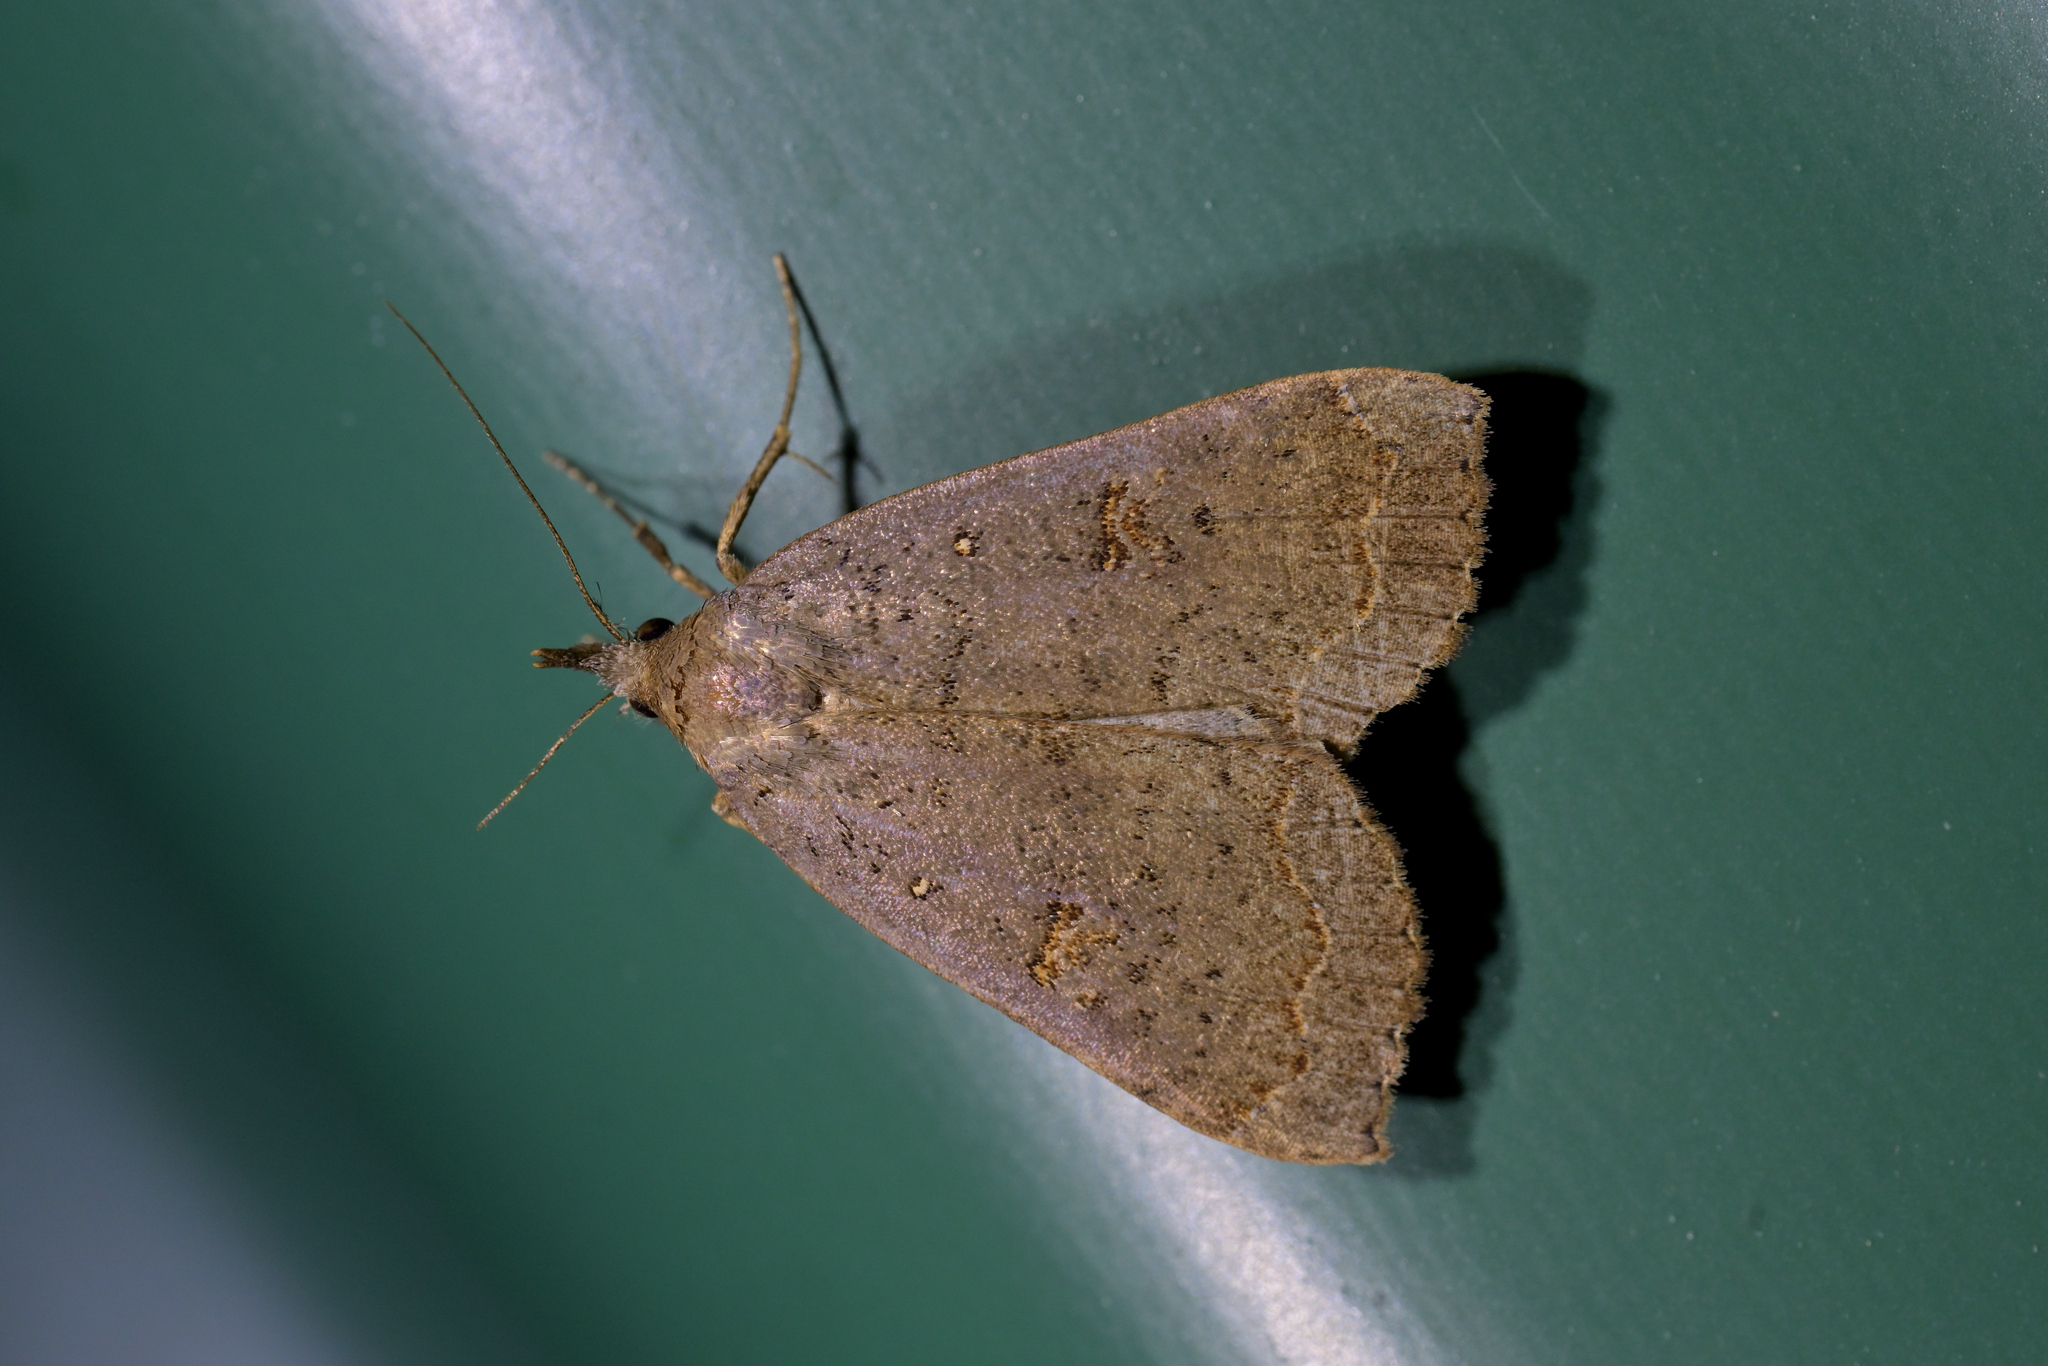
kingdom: Animalia
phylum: Arthropoda
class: Insecta
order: Lepidoptera
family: Erebidae
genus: Rhapsa
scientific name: Rhapsa scotosialis
